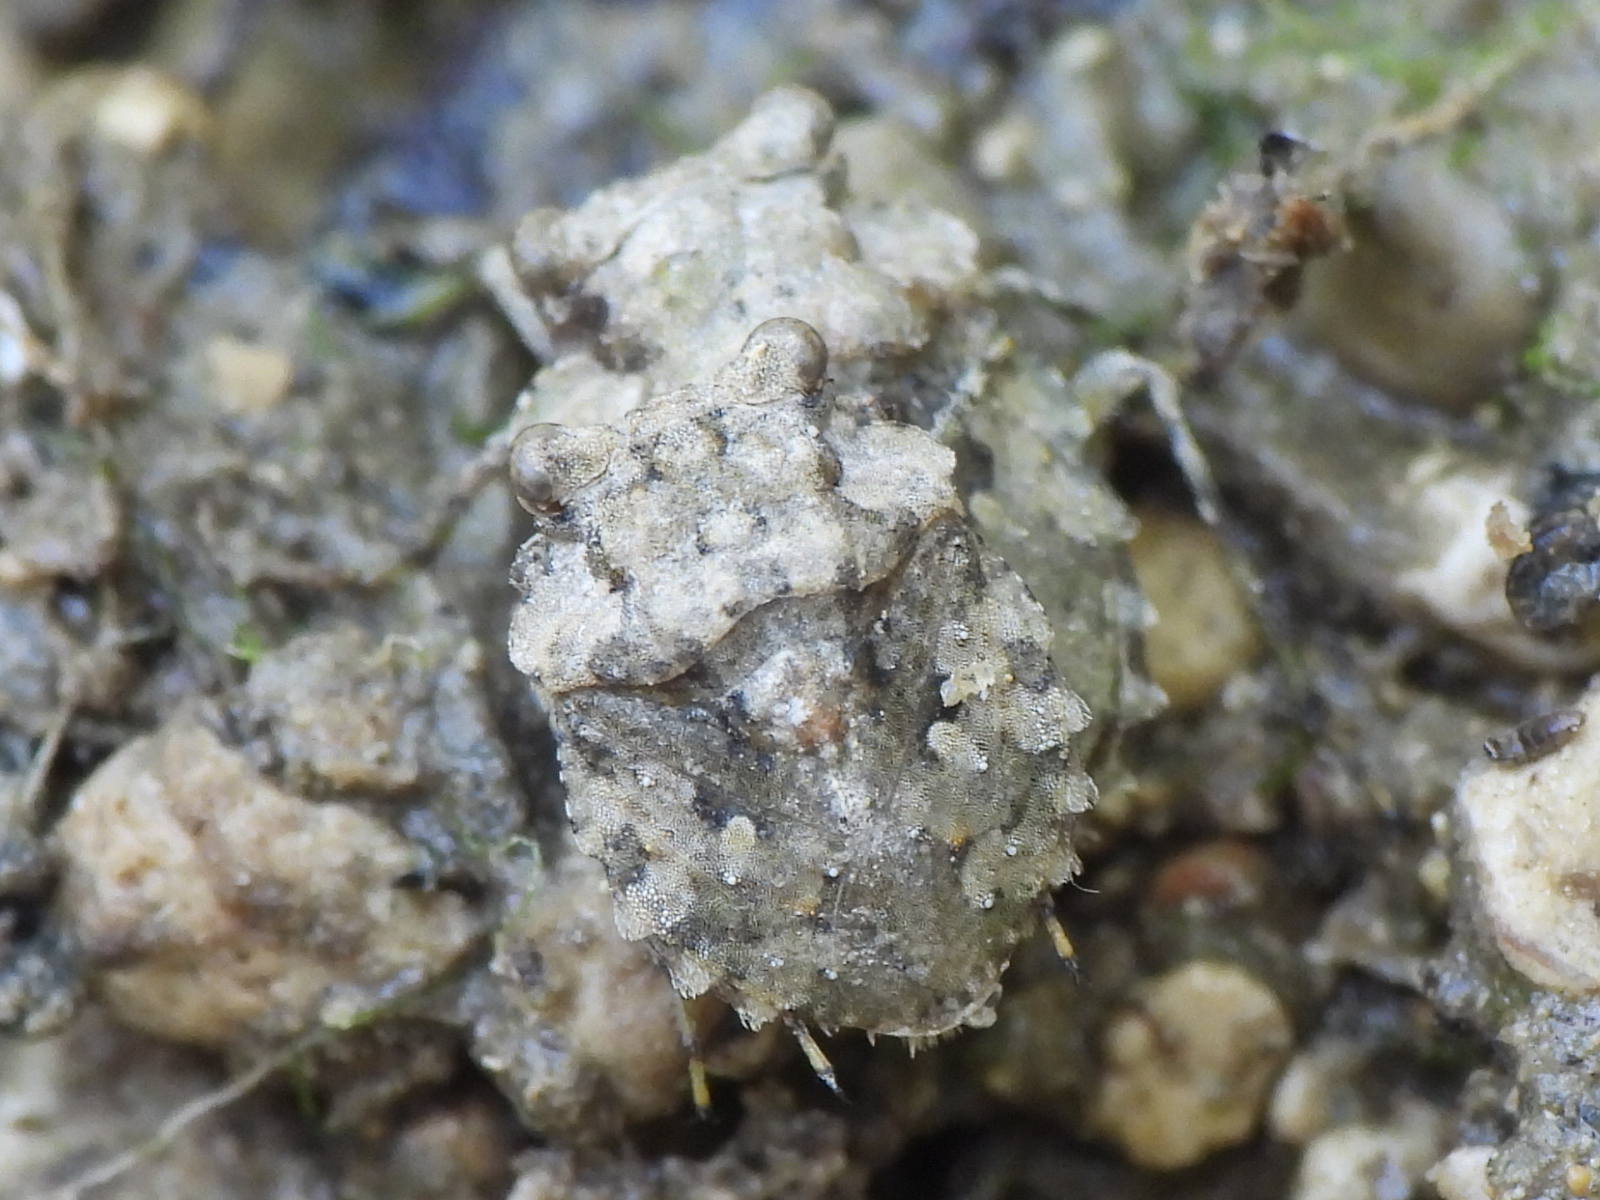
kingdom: Animalia
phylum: Arthropoda
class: Insecta
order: Hemiptera
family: Gelastocoridae
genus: Gelastocoris
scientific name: Gelastocoris oculatus
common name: Toad bug
